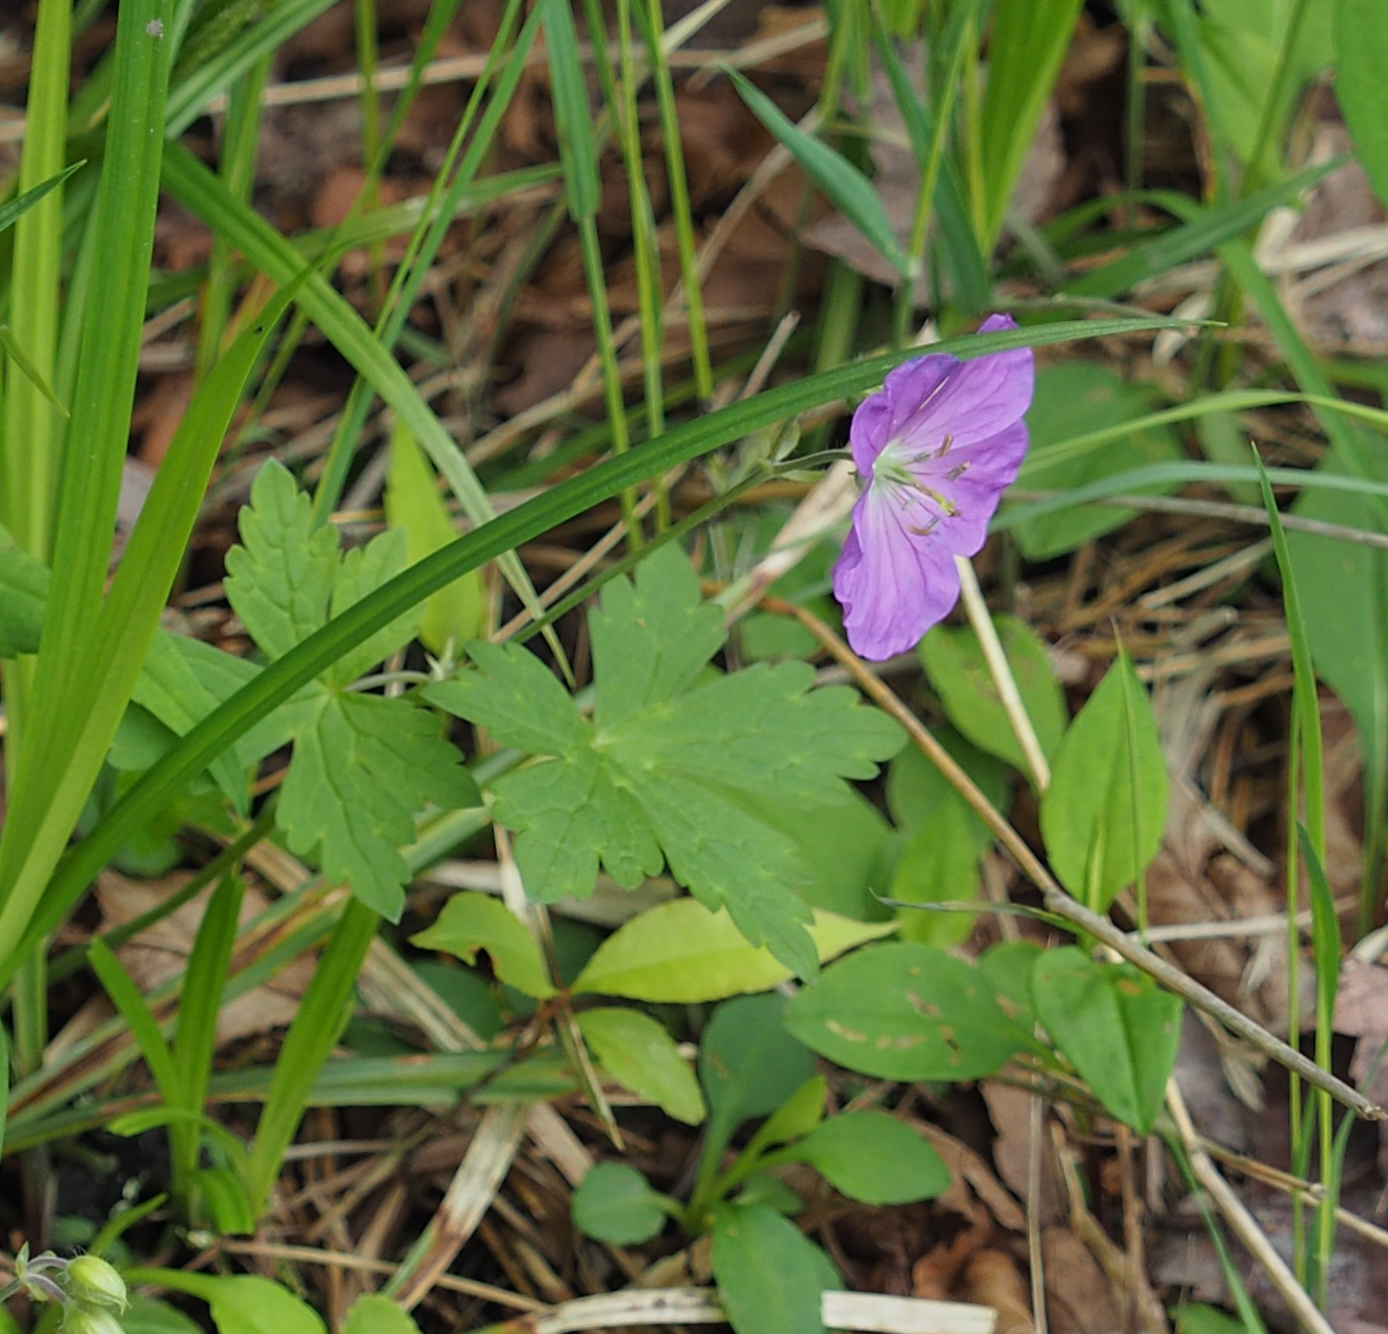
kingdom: Plantae
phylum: Tracheophyta
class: Magnoliopsida
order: Geraniales
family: Geraniaceae
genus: Geranium
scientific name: Geranium maculatum
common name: Spotted geranium
